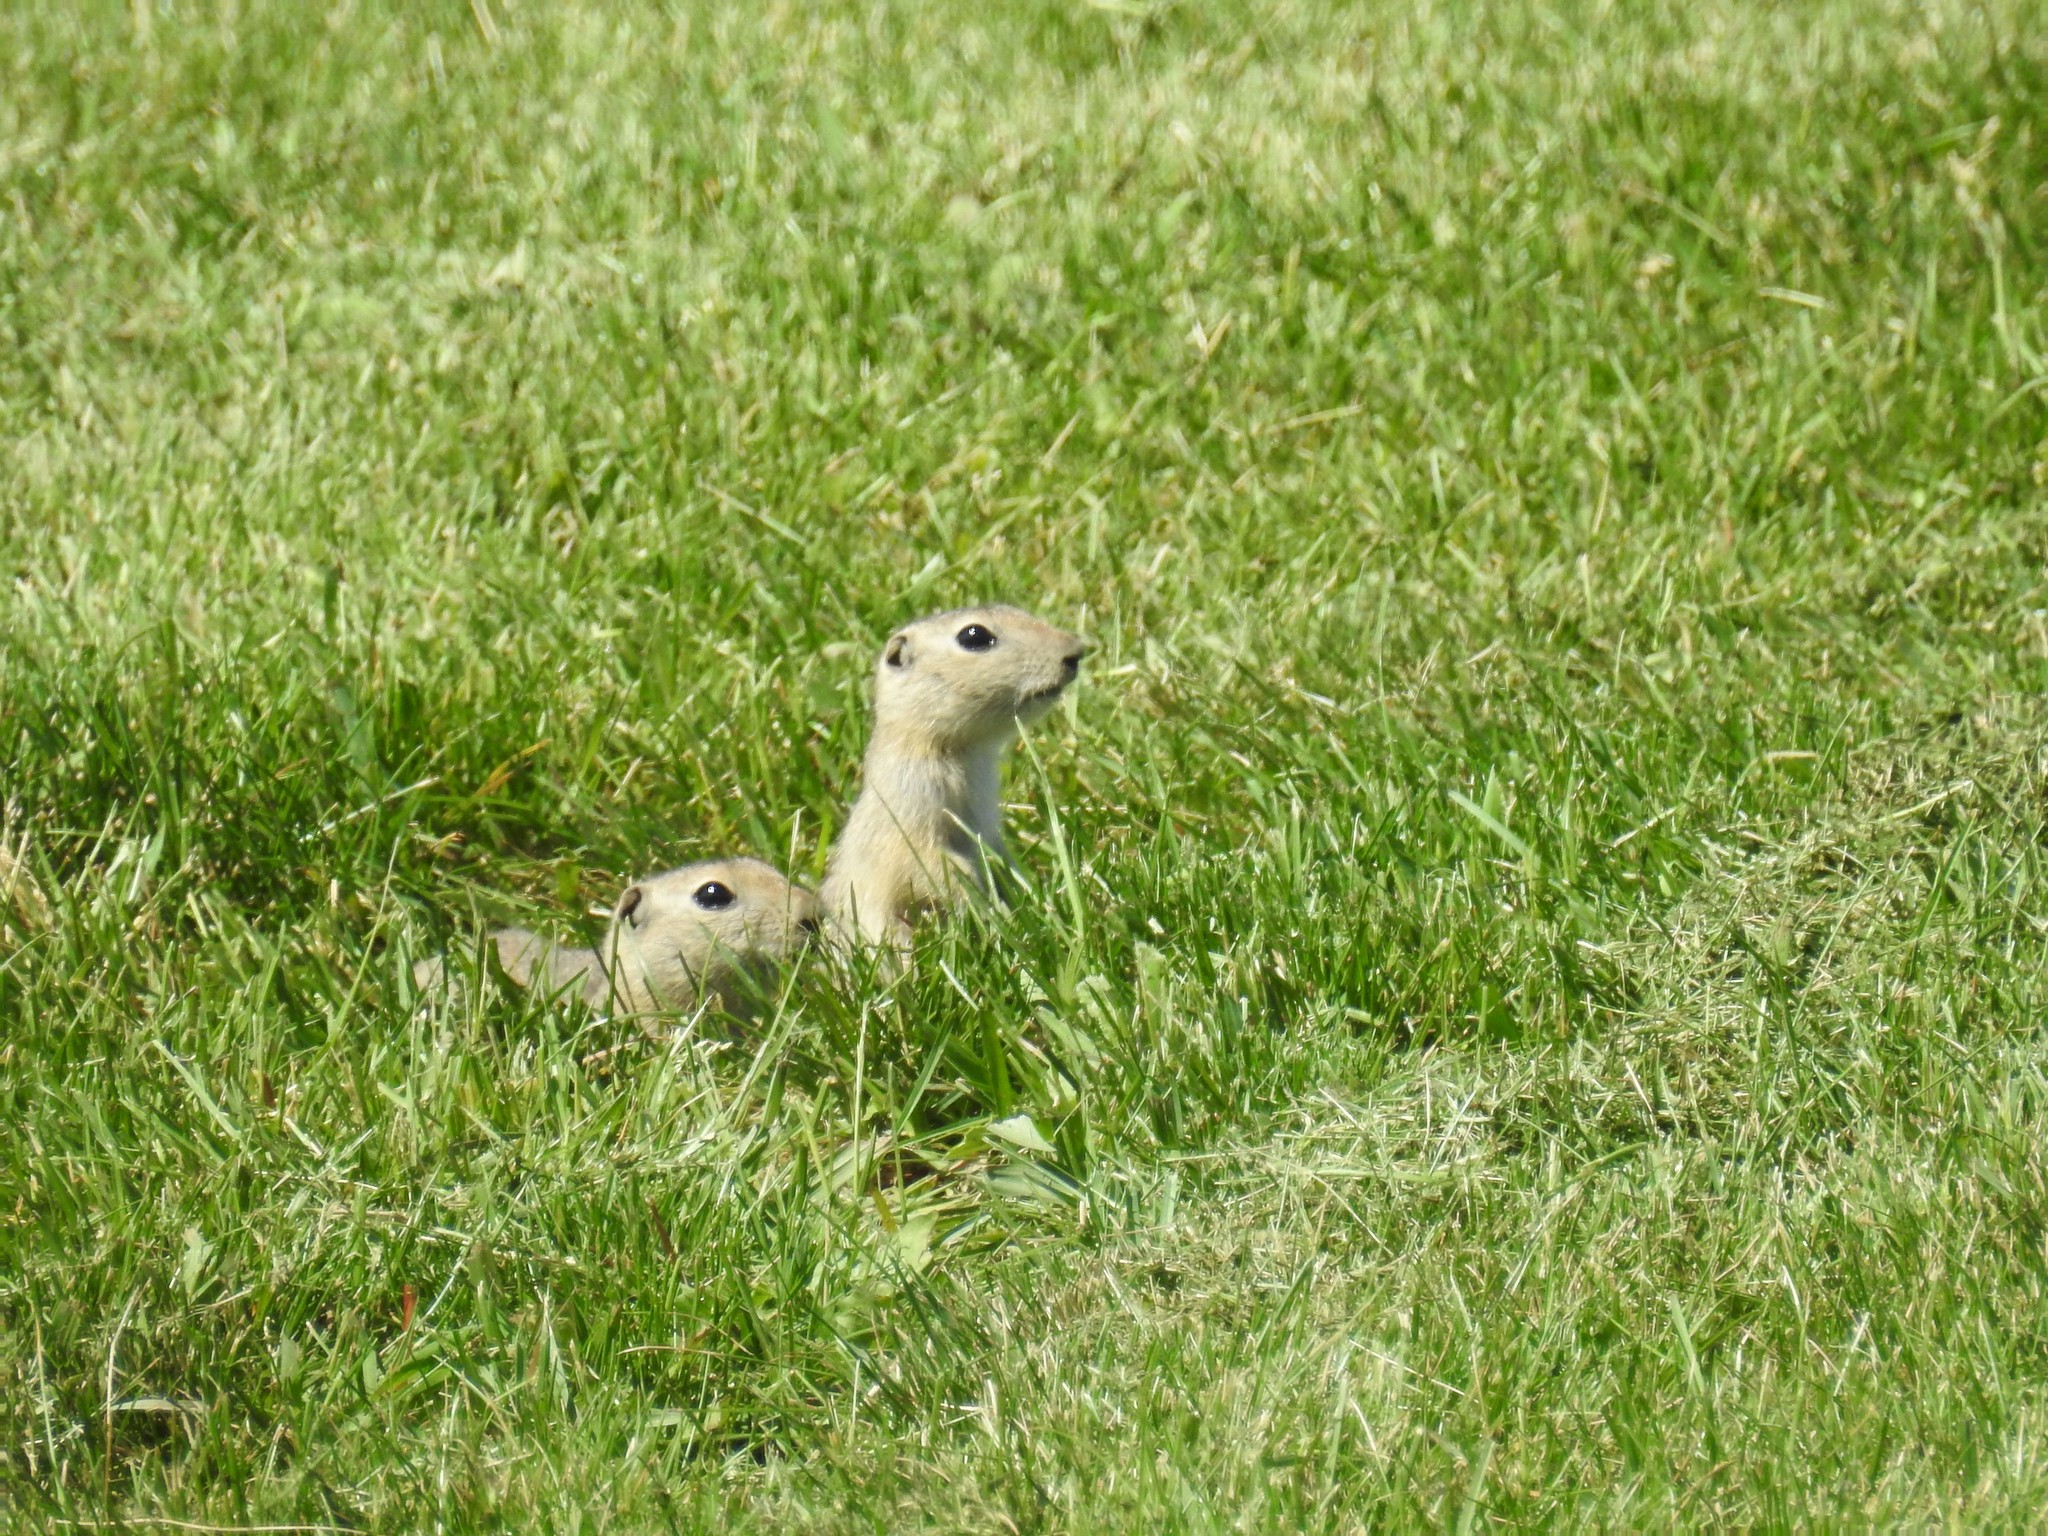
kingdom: Animalia
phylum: Chordata
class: Mammalia
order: Rodentia
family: Sciuridae
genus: Urocitellus
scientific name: Urocitellus richardsonii
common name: Richardson's ground squirrel
